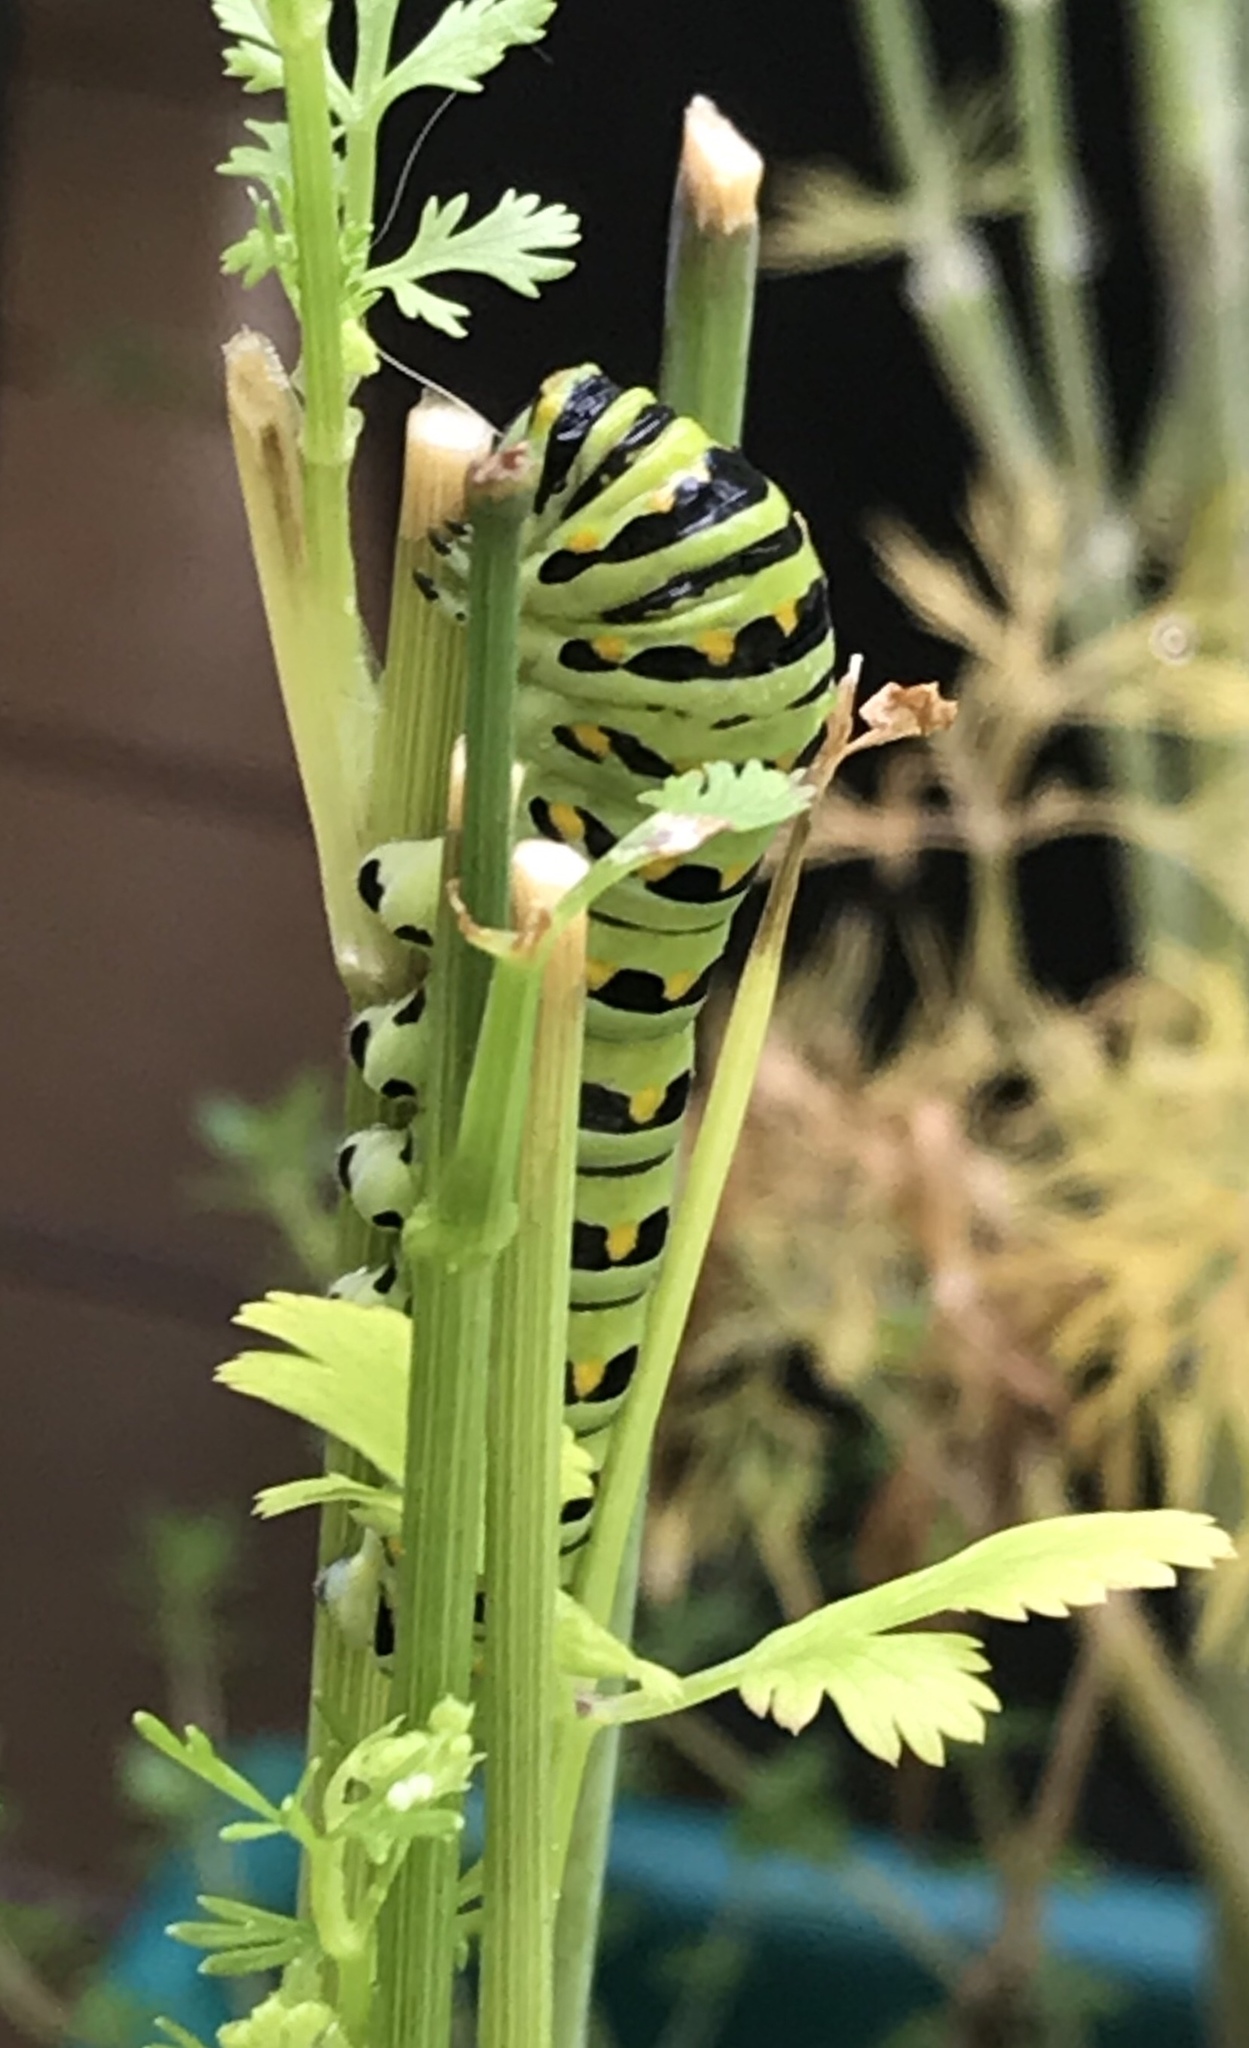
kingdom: Animalia
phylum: Arthropoda
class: Insecta
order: Lepidoptera
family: Papilionidae
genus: Papilio
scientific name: Papilio polyxenes
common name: Black swallowtail
